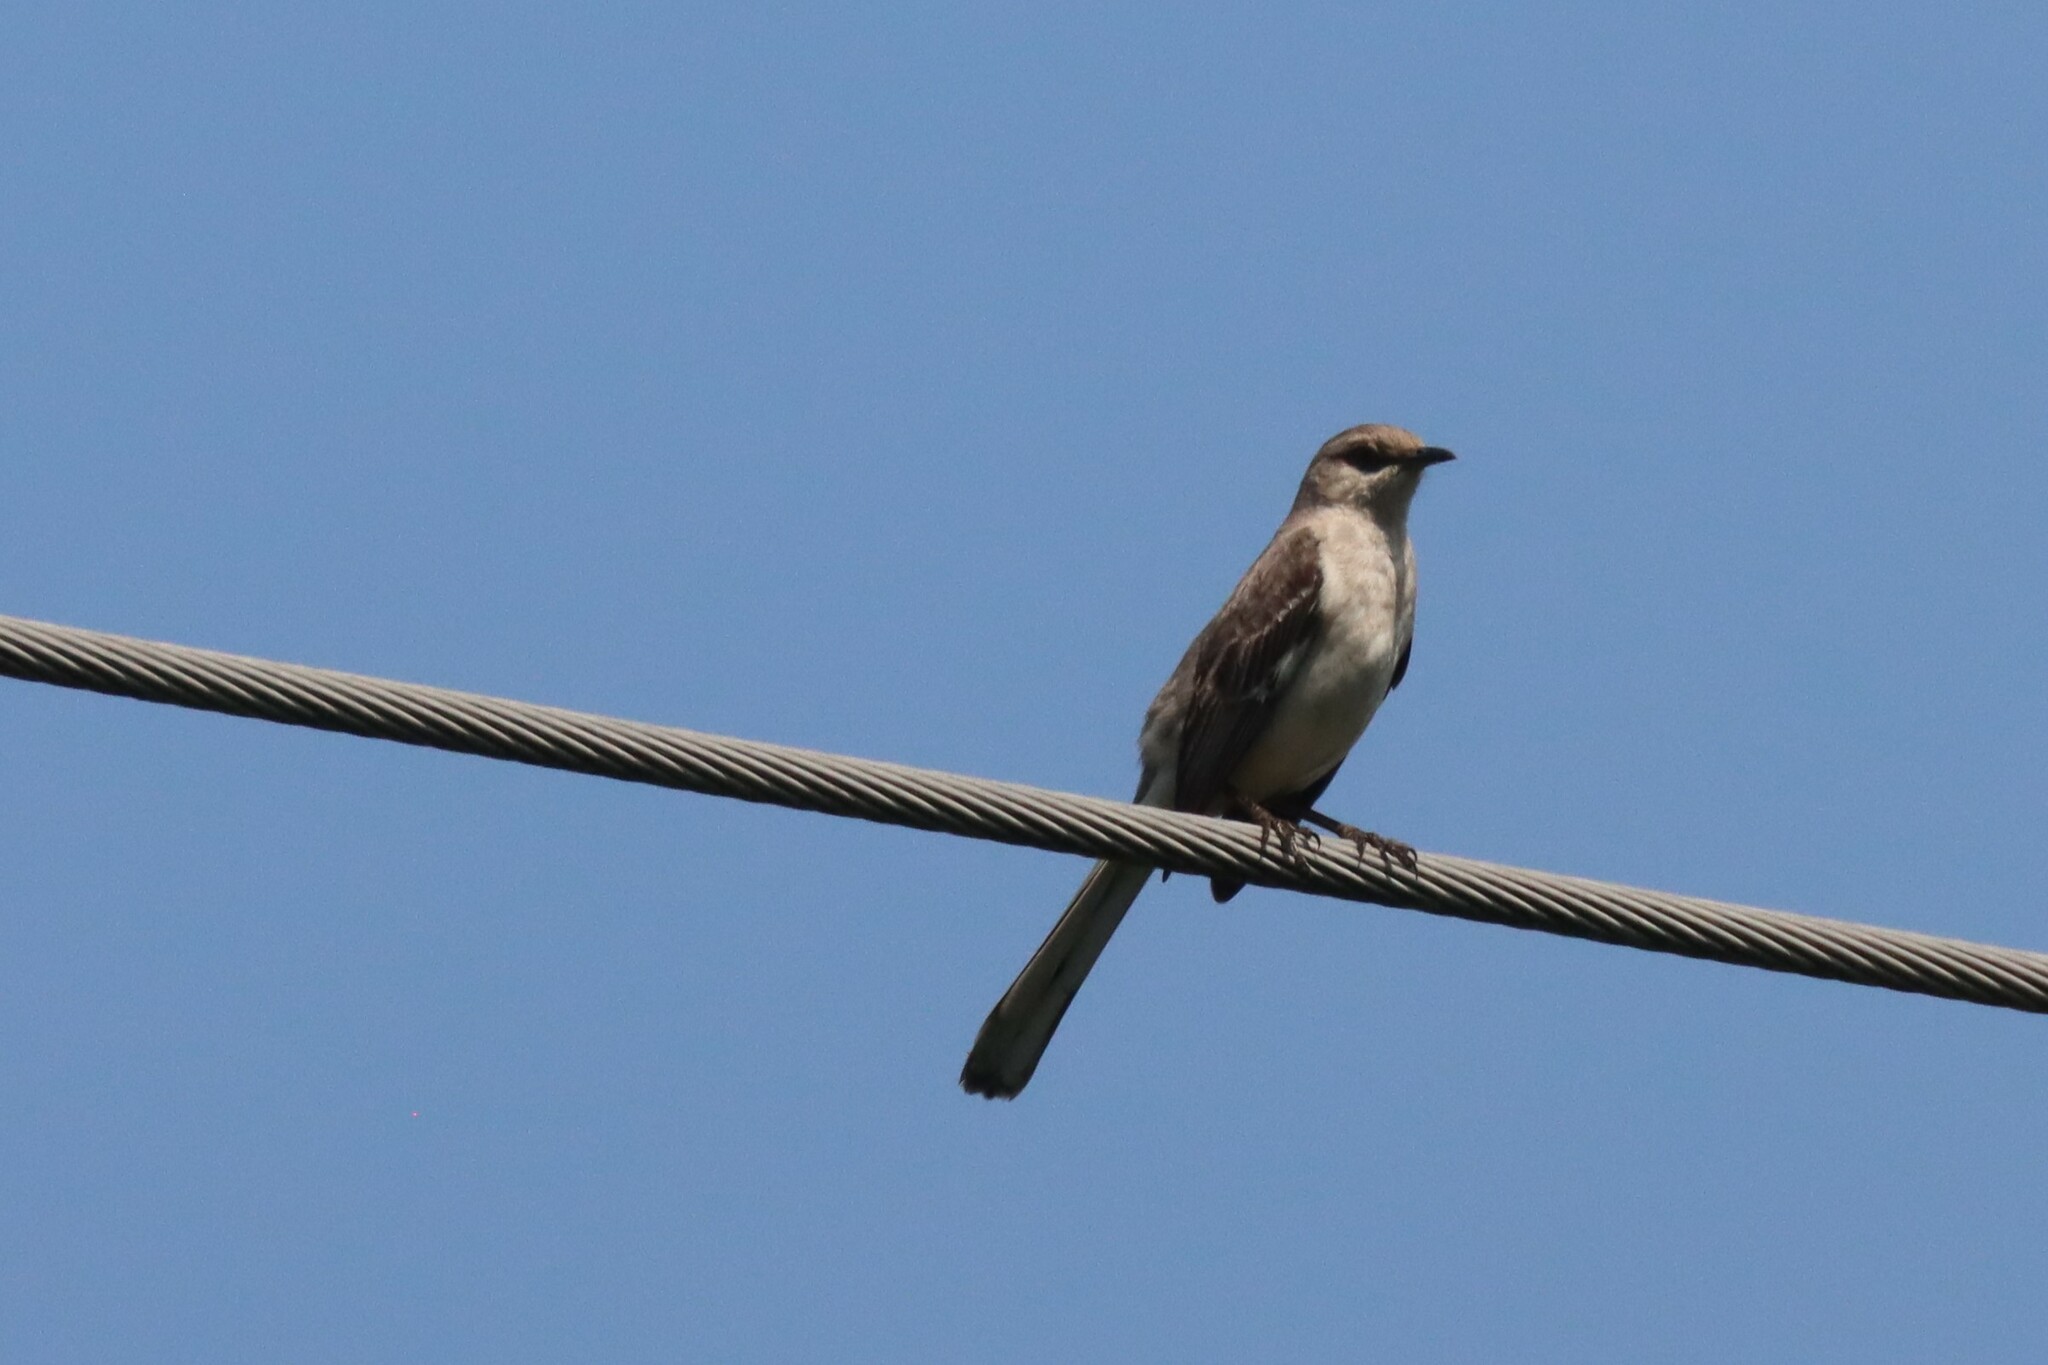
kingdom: Animalia
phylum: Chordata
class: Aves
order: Passeriformes
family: Mimidae
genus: Mimus
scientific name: Mimus polyglottos
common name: Northern mockingbird
